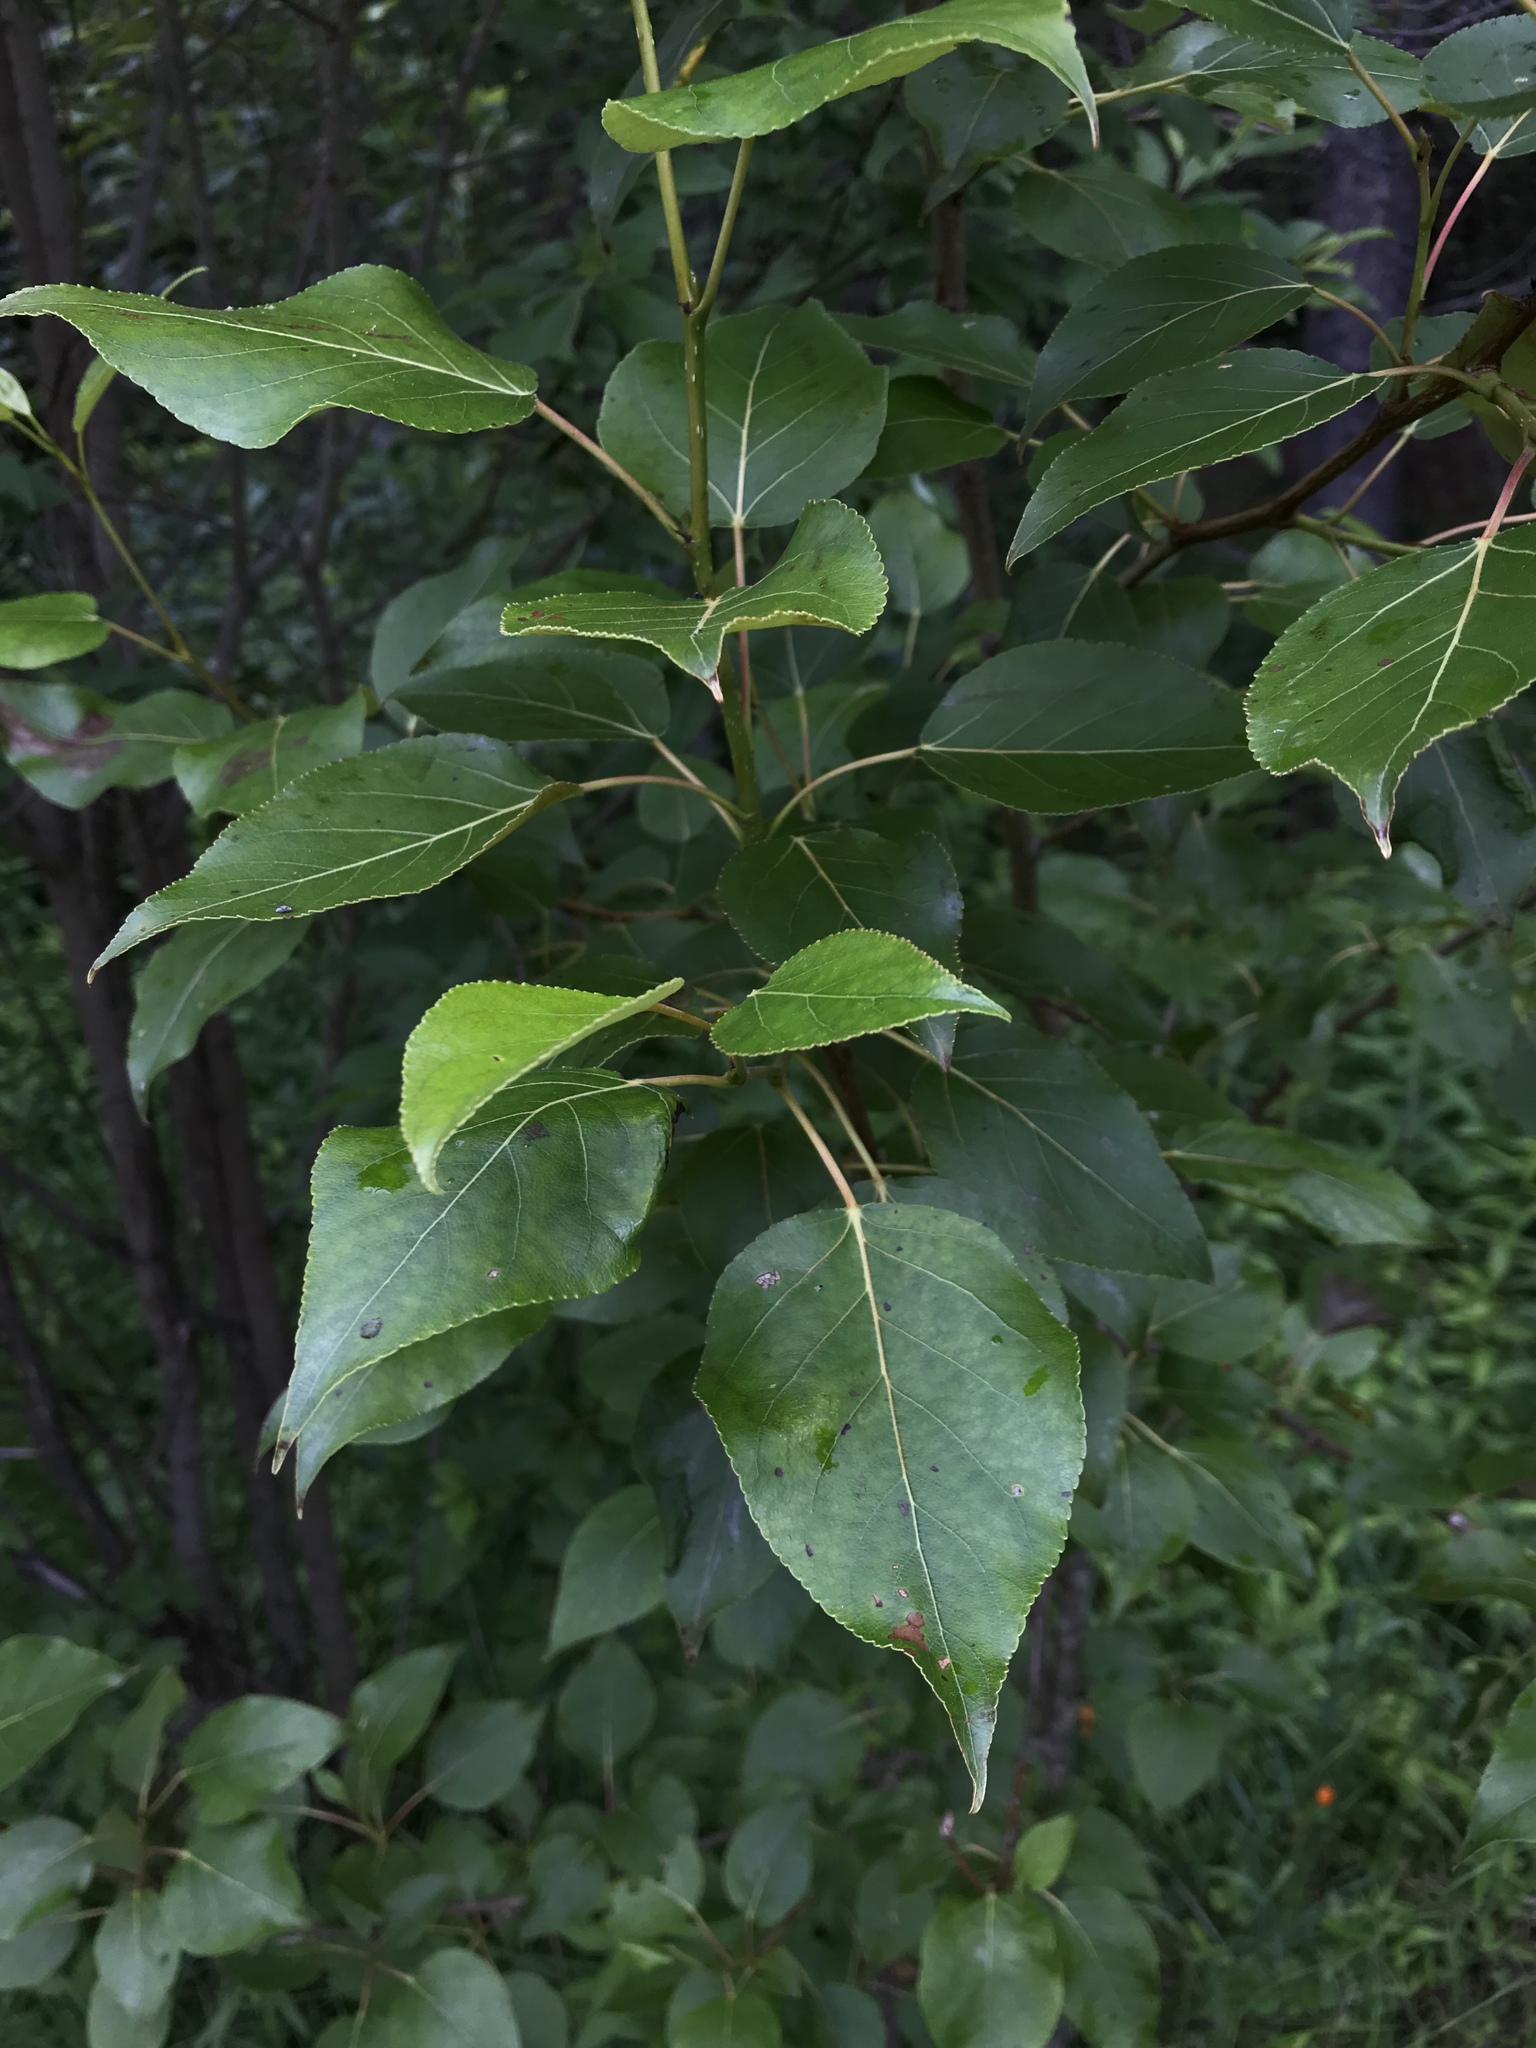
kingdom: Plantae
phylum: Tracheophyta
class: Magnoliopsida
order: Malpighiales
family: Salicaceae
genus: Populus
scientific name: Populus balsamifera
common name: Balsam poplar
